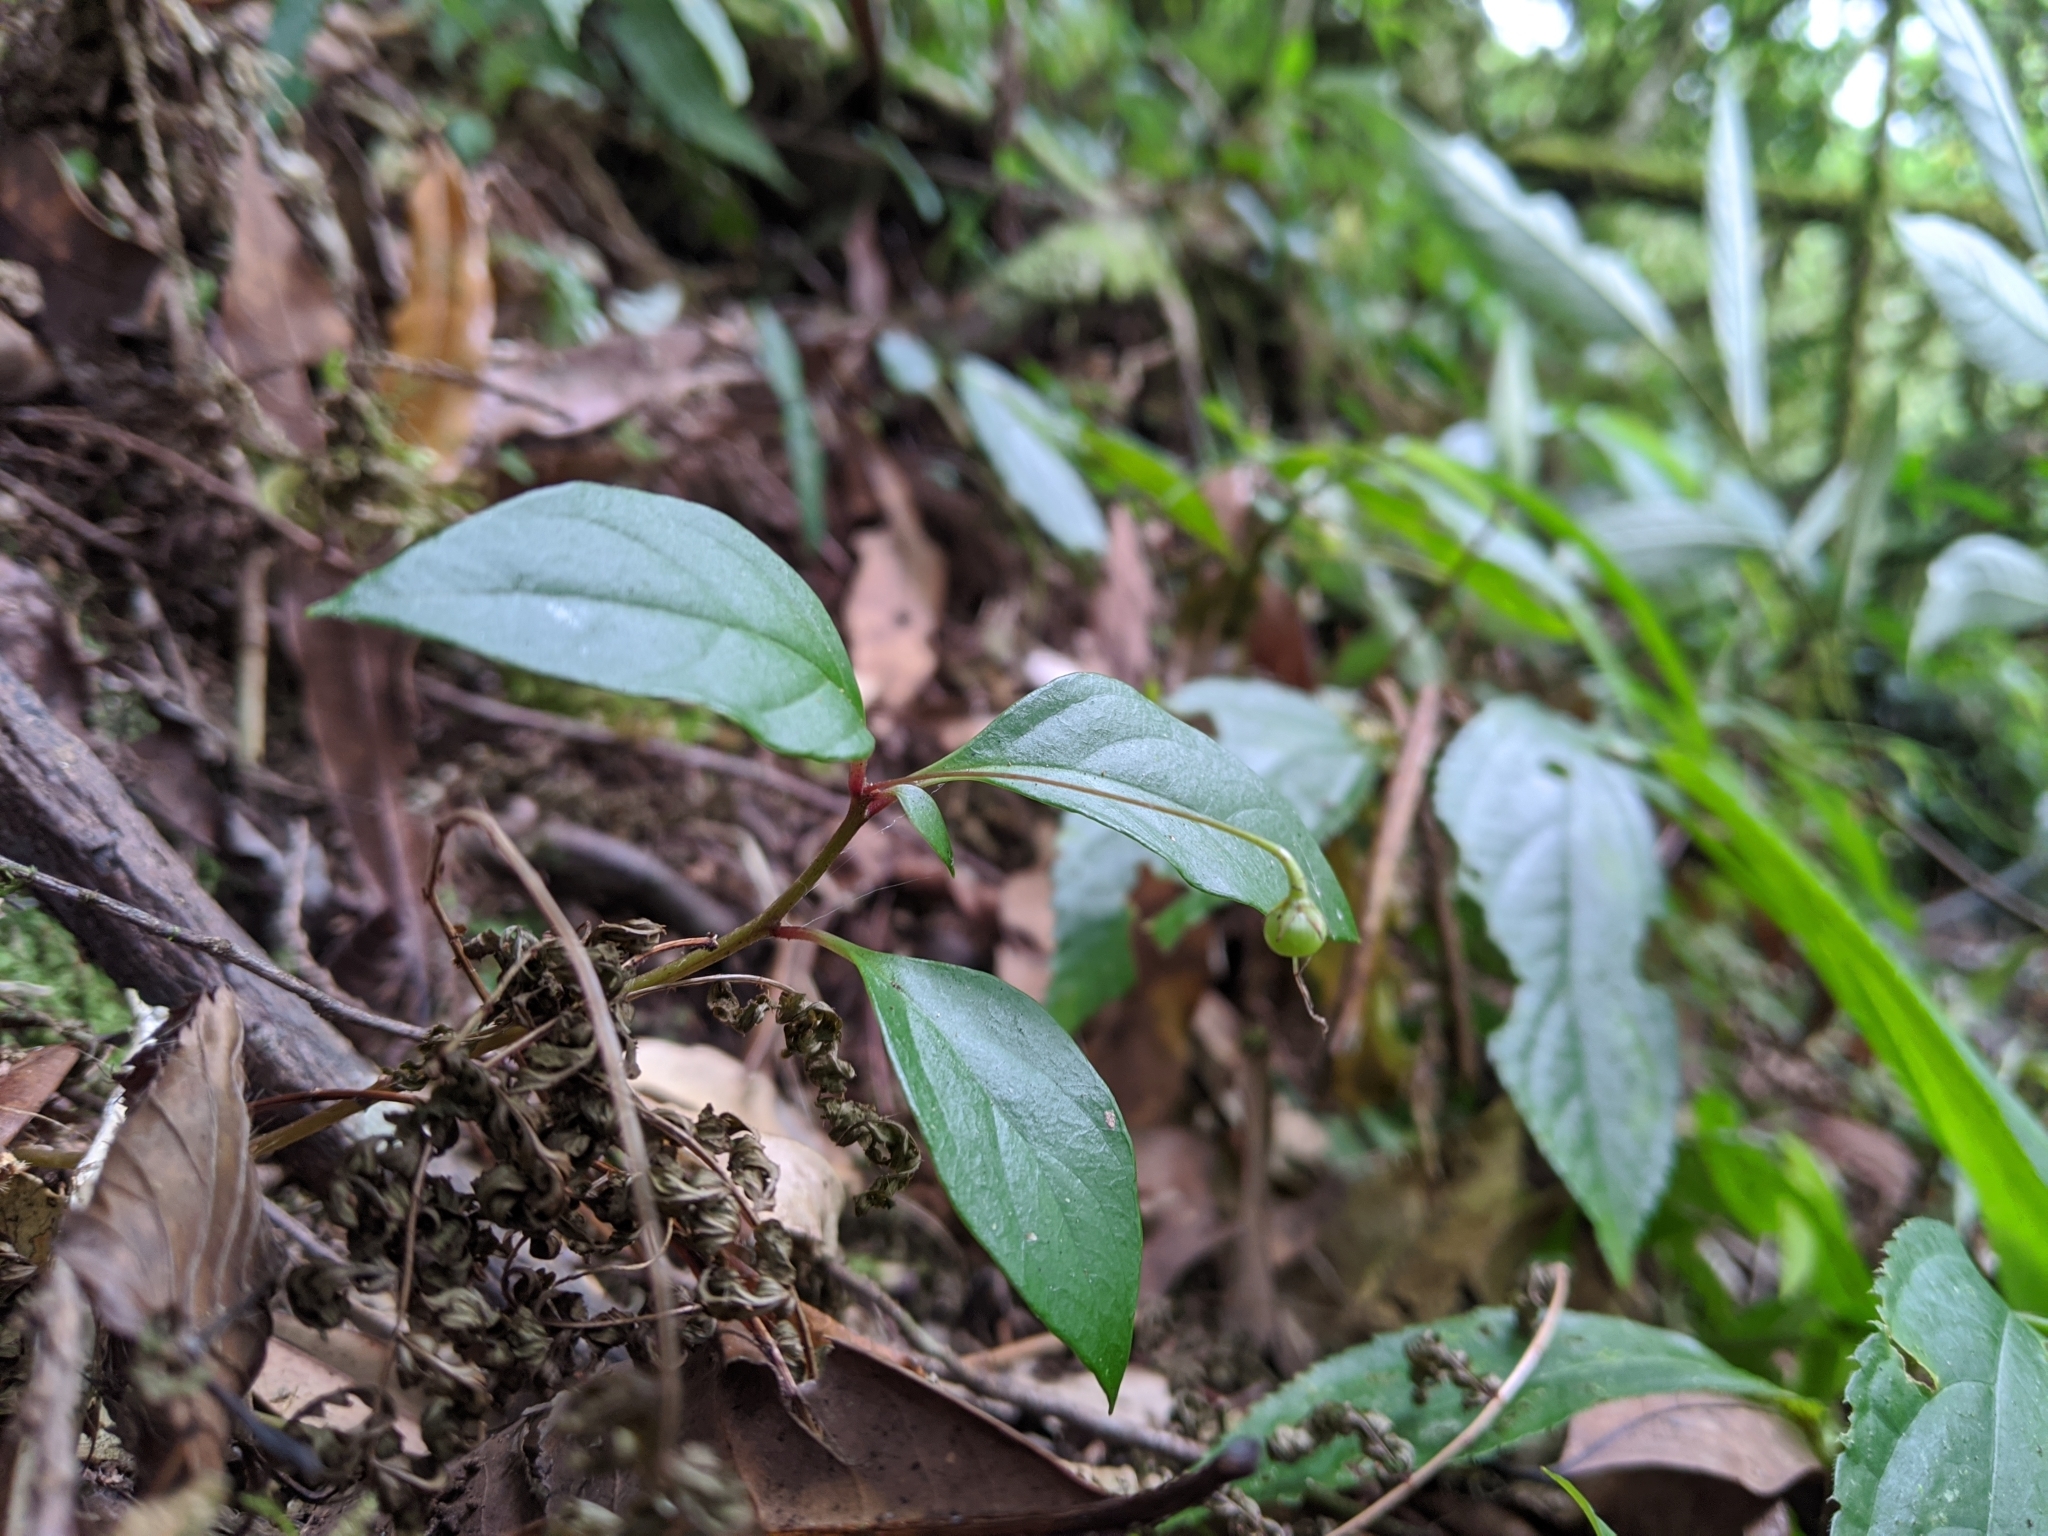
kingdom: Plantae
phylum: Tracheophyta
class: Magnoliopsida
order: Ericales
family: Primulaceae
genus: Lysimachia
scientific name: Lysimachia ardisioides
